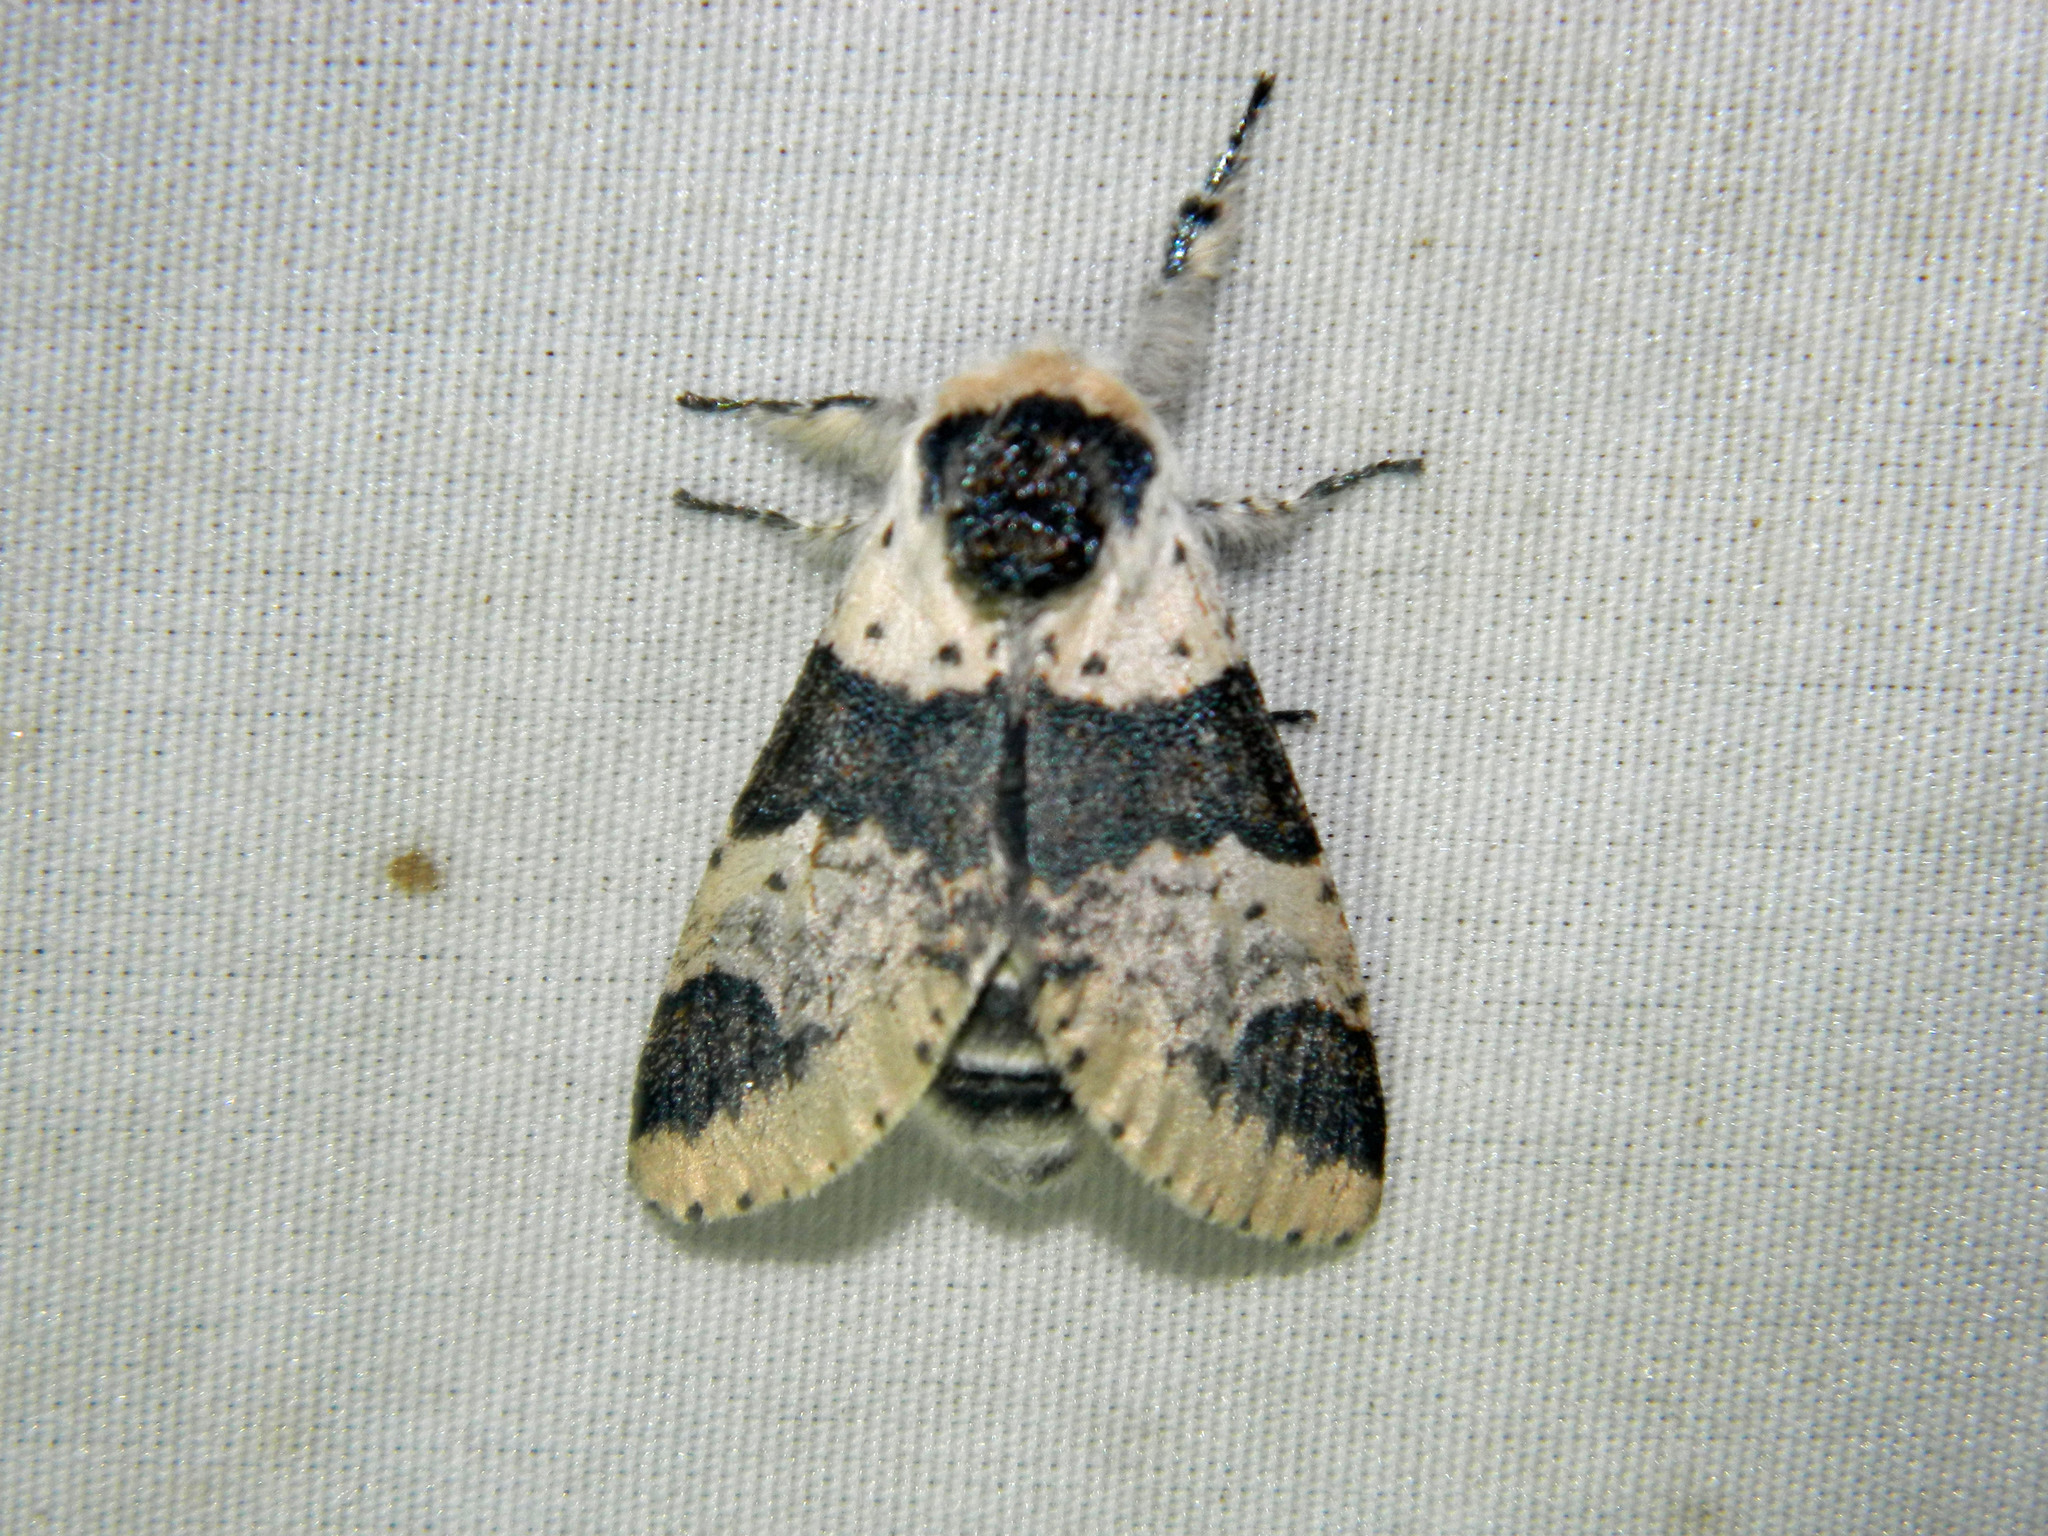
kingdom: Animalia
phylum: Arthropoda
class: Insecta
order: Lepidoptera
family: Notodontidae
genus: Furcula
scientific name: Furcula modesta
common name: Modest furcula moth
